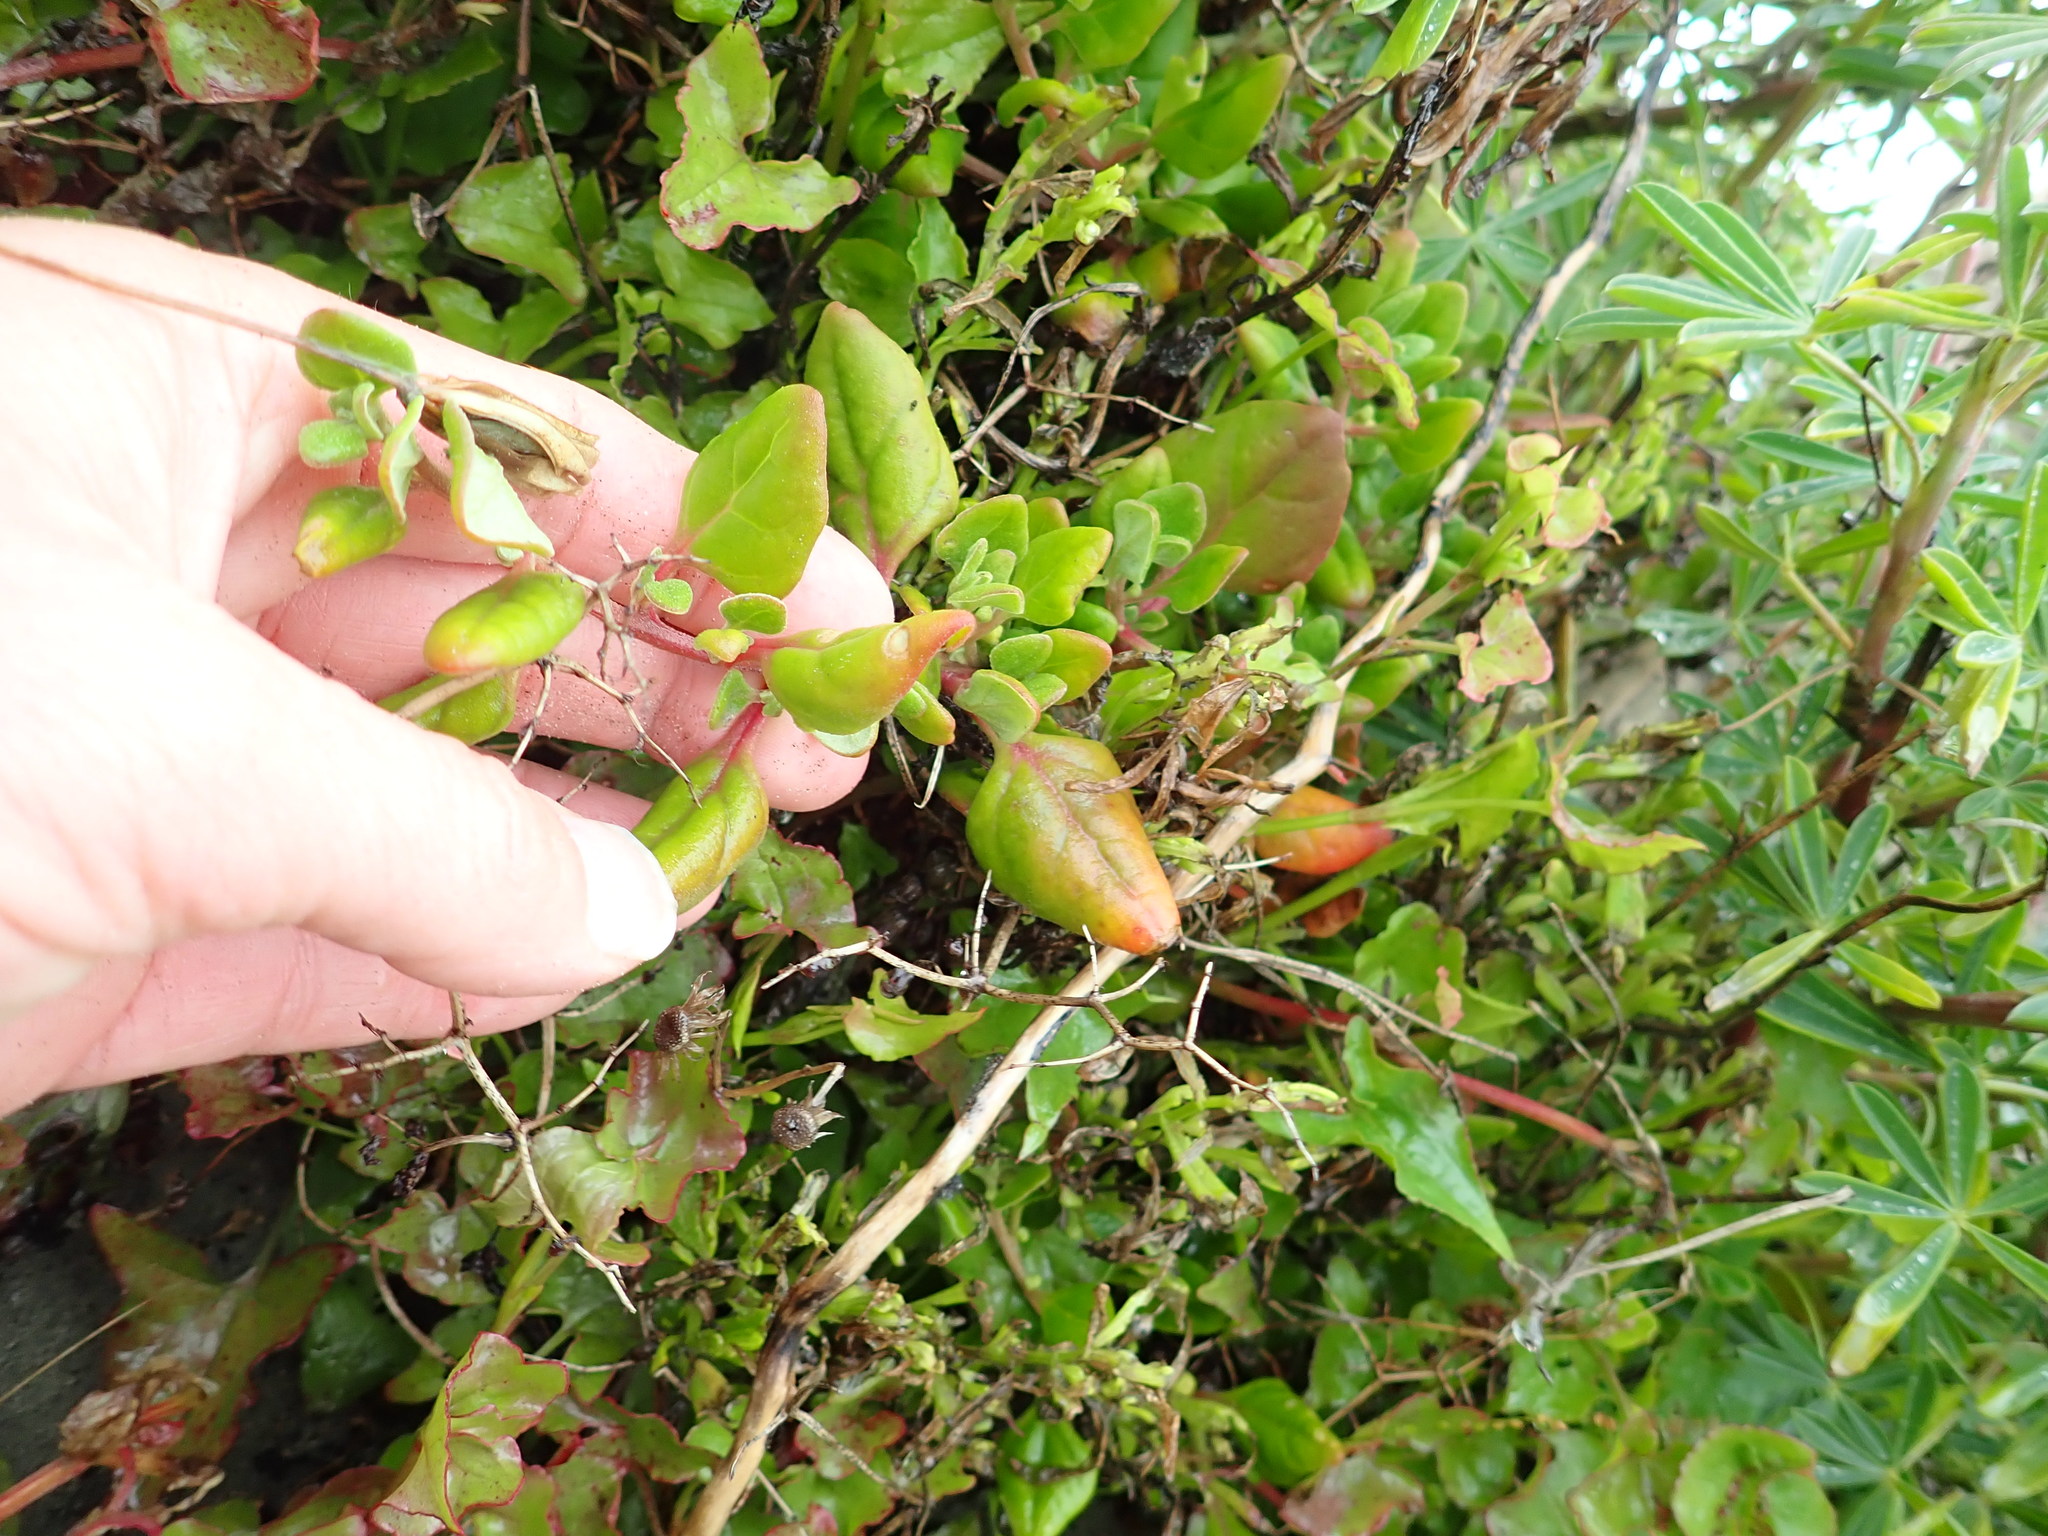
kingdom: Plantae
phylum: Tracheophyta
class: Magnoliopsida
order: Caryophyllales
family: Aizoaceae
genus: Tetragonia
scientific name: Tetragonia implexicoma
